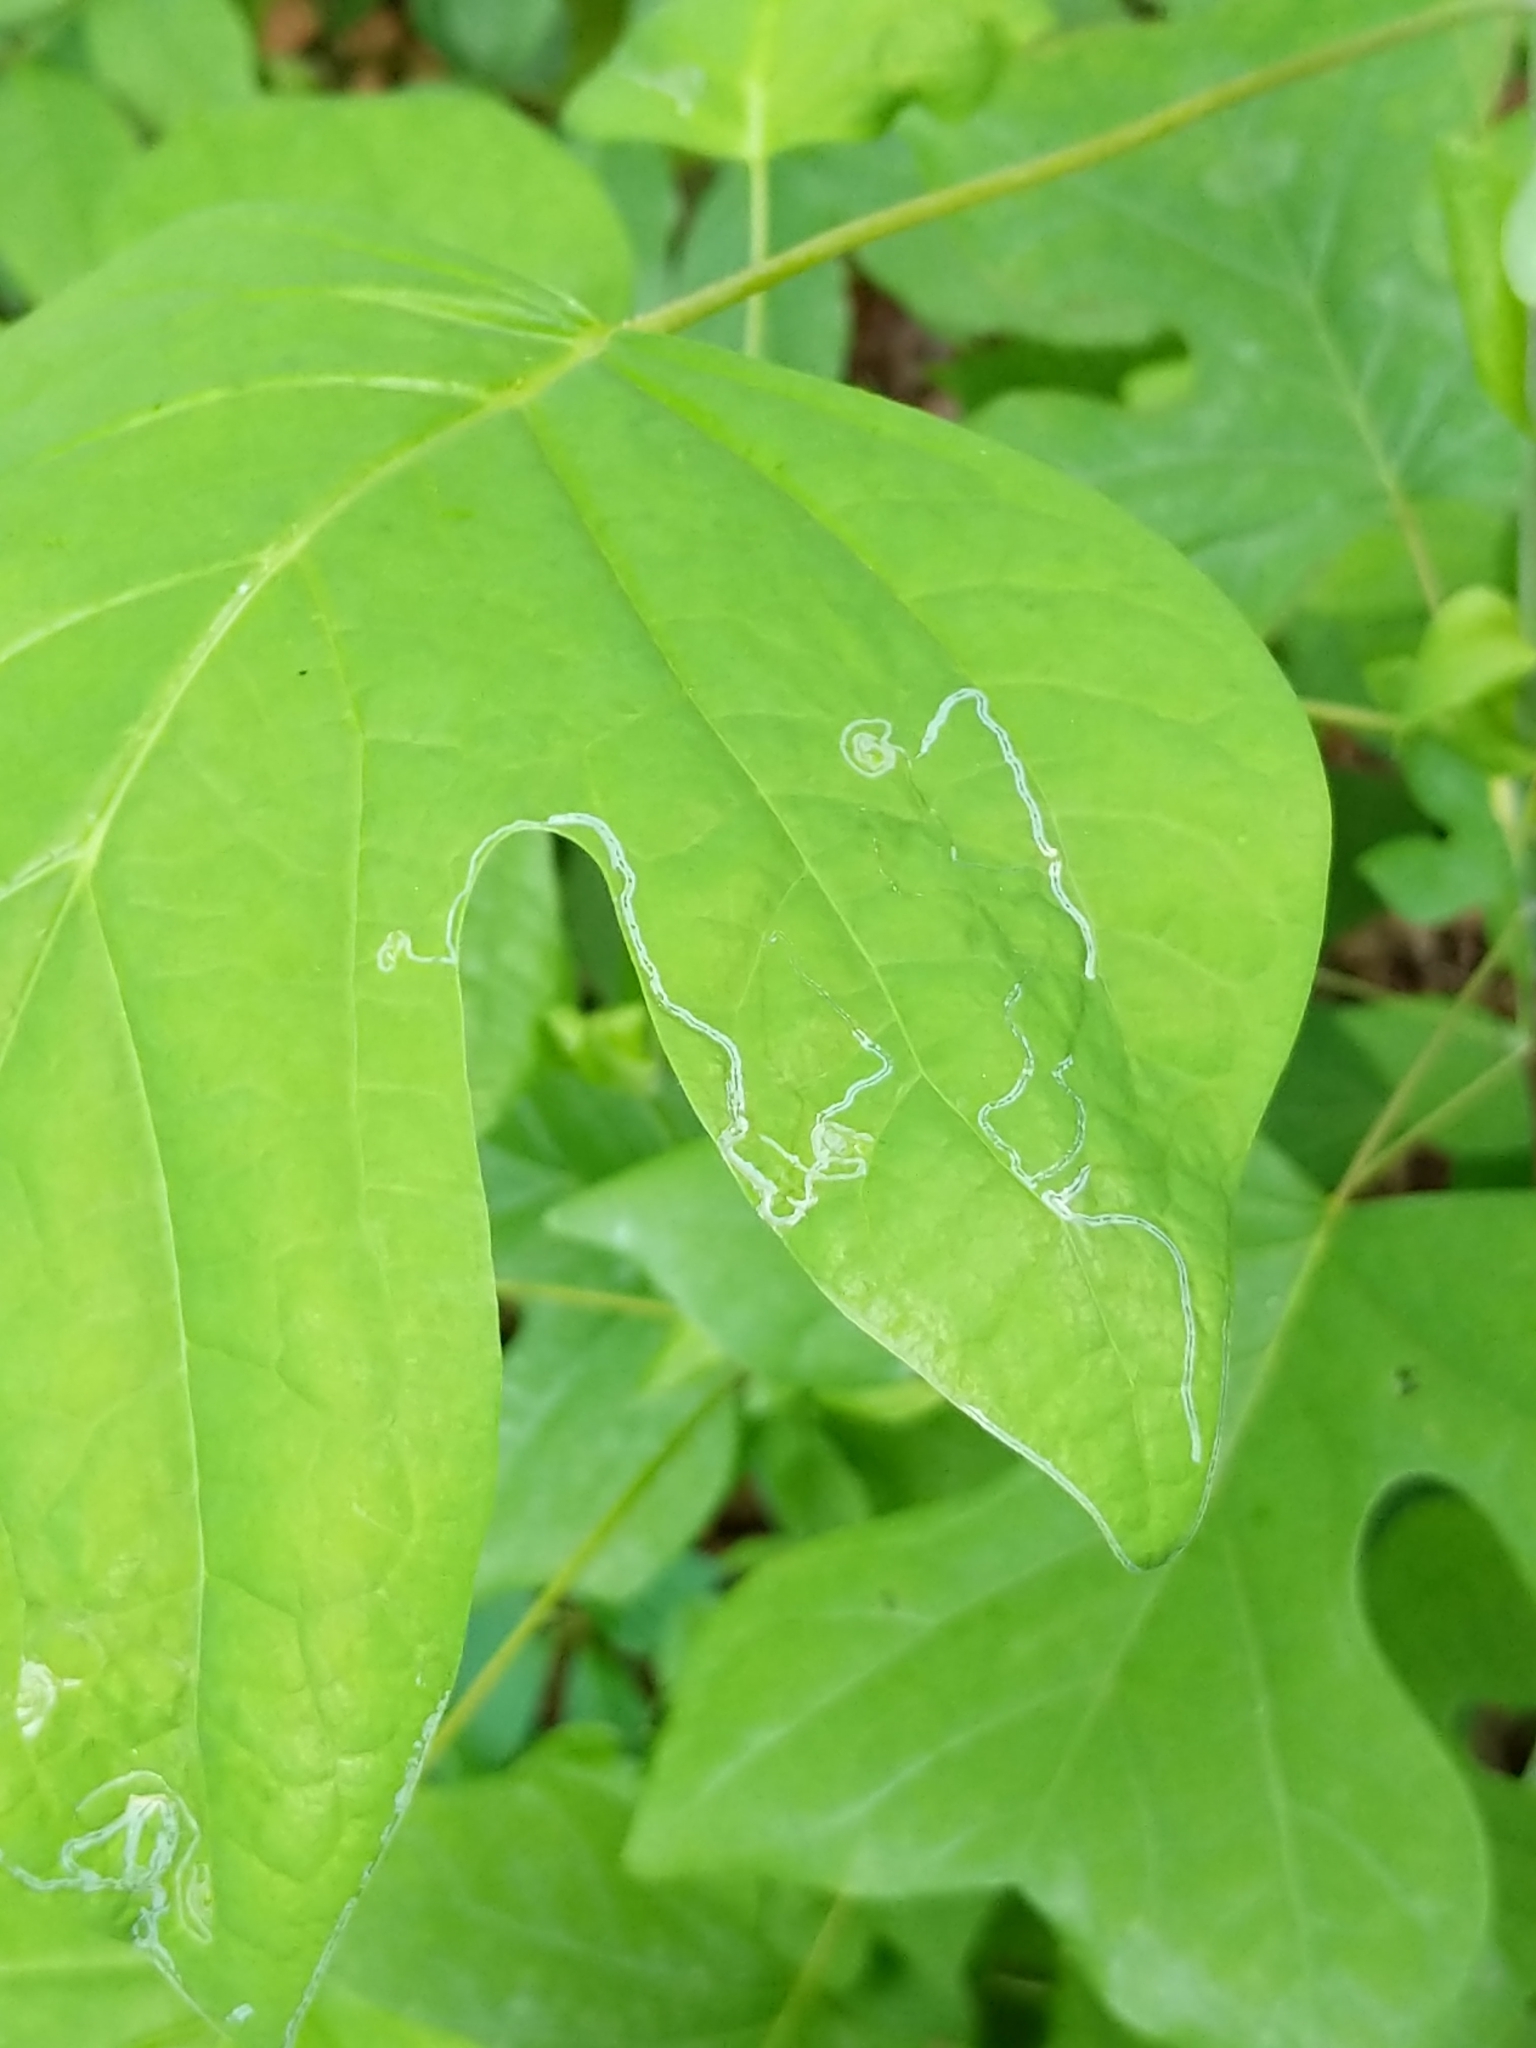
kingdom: Plantae
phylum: Tracheophyta
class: Magnoliopsida
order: Magnoliales
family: Magnoliaceae
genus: Liriodendron
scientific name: Liriodendron tulipifera
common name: Tulip tree
